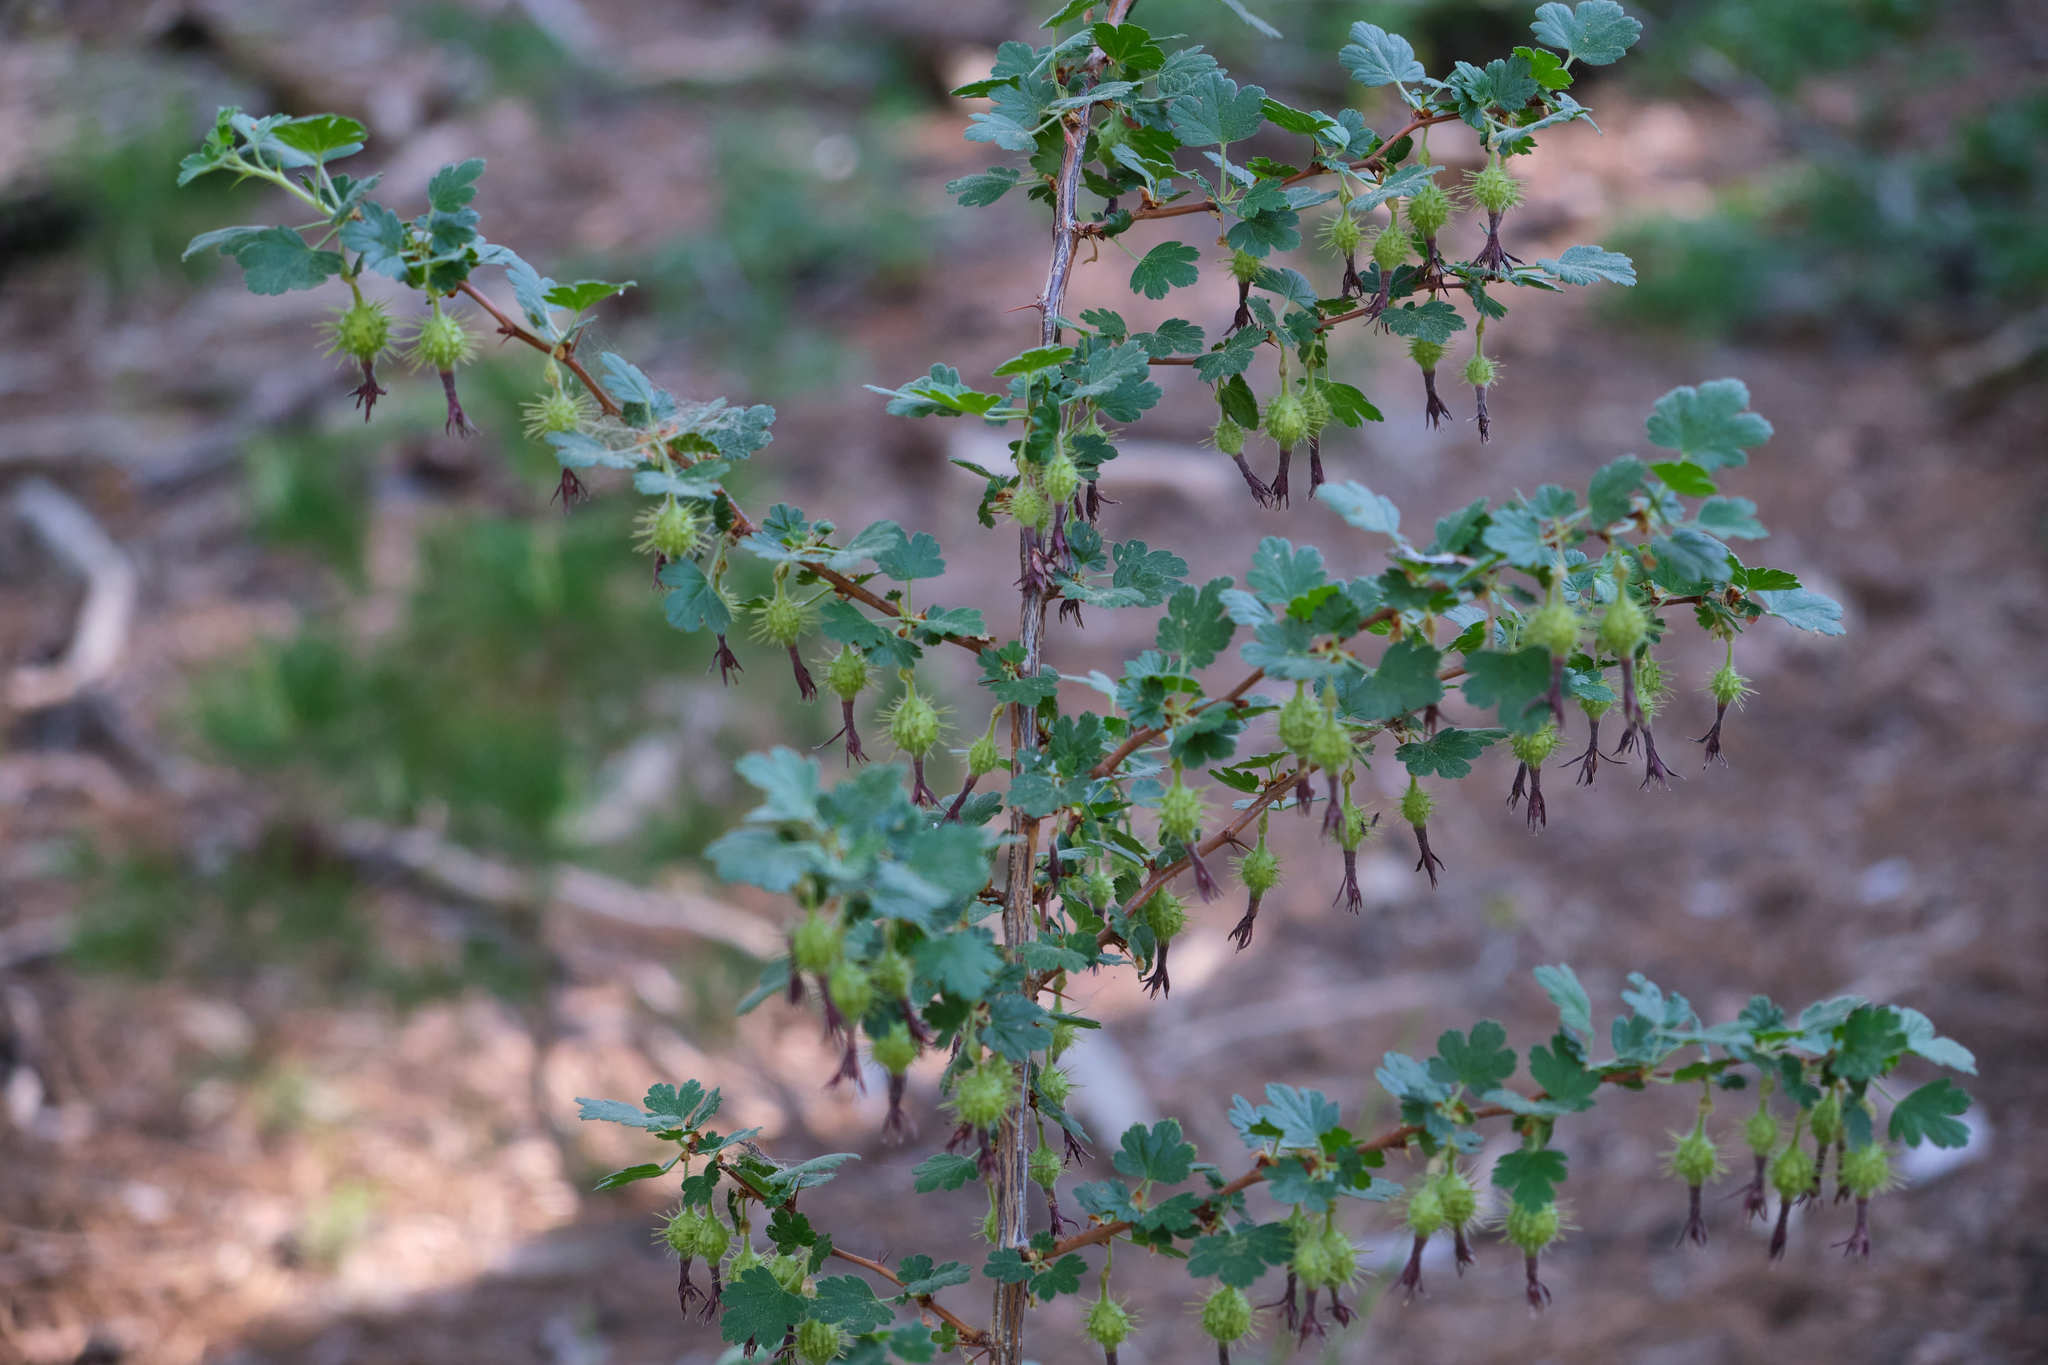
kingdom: Plantae
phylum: Tracheophyta
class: Magnoliopsida
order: Saxifragales
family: Grossulariaceae
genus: Ribes
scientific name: Ribes roezlii
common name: Sierra gooseberry
